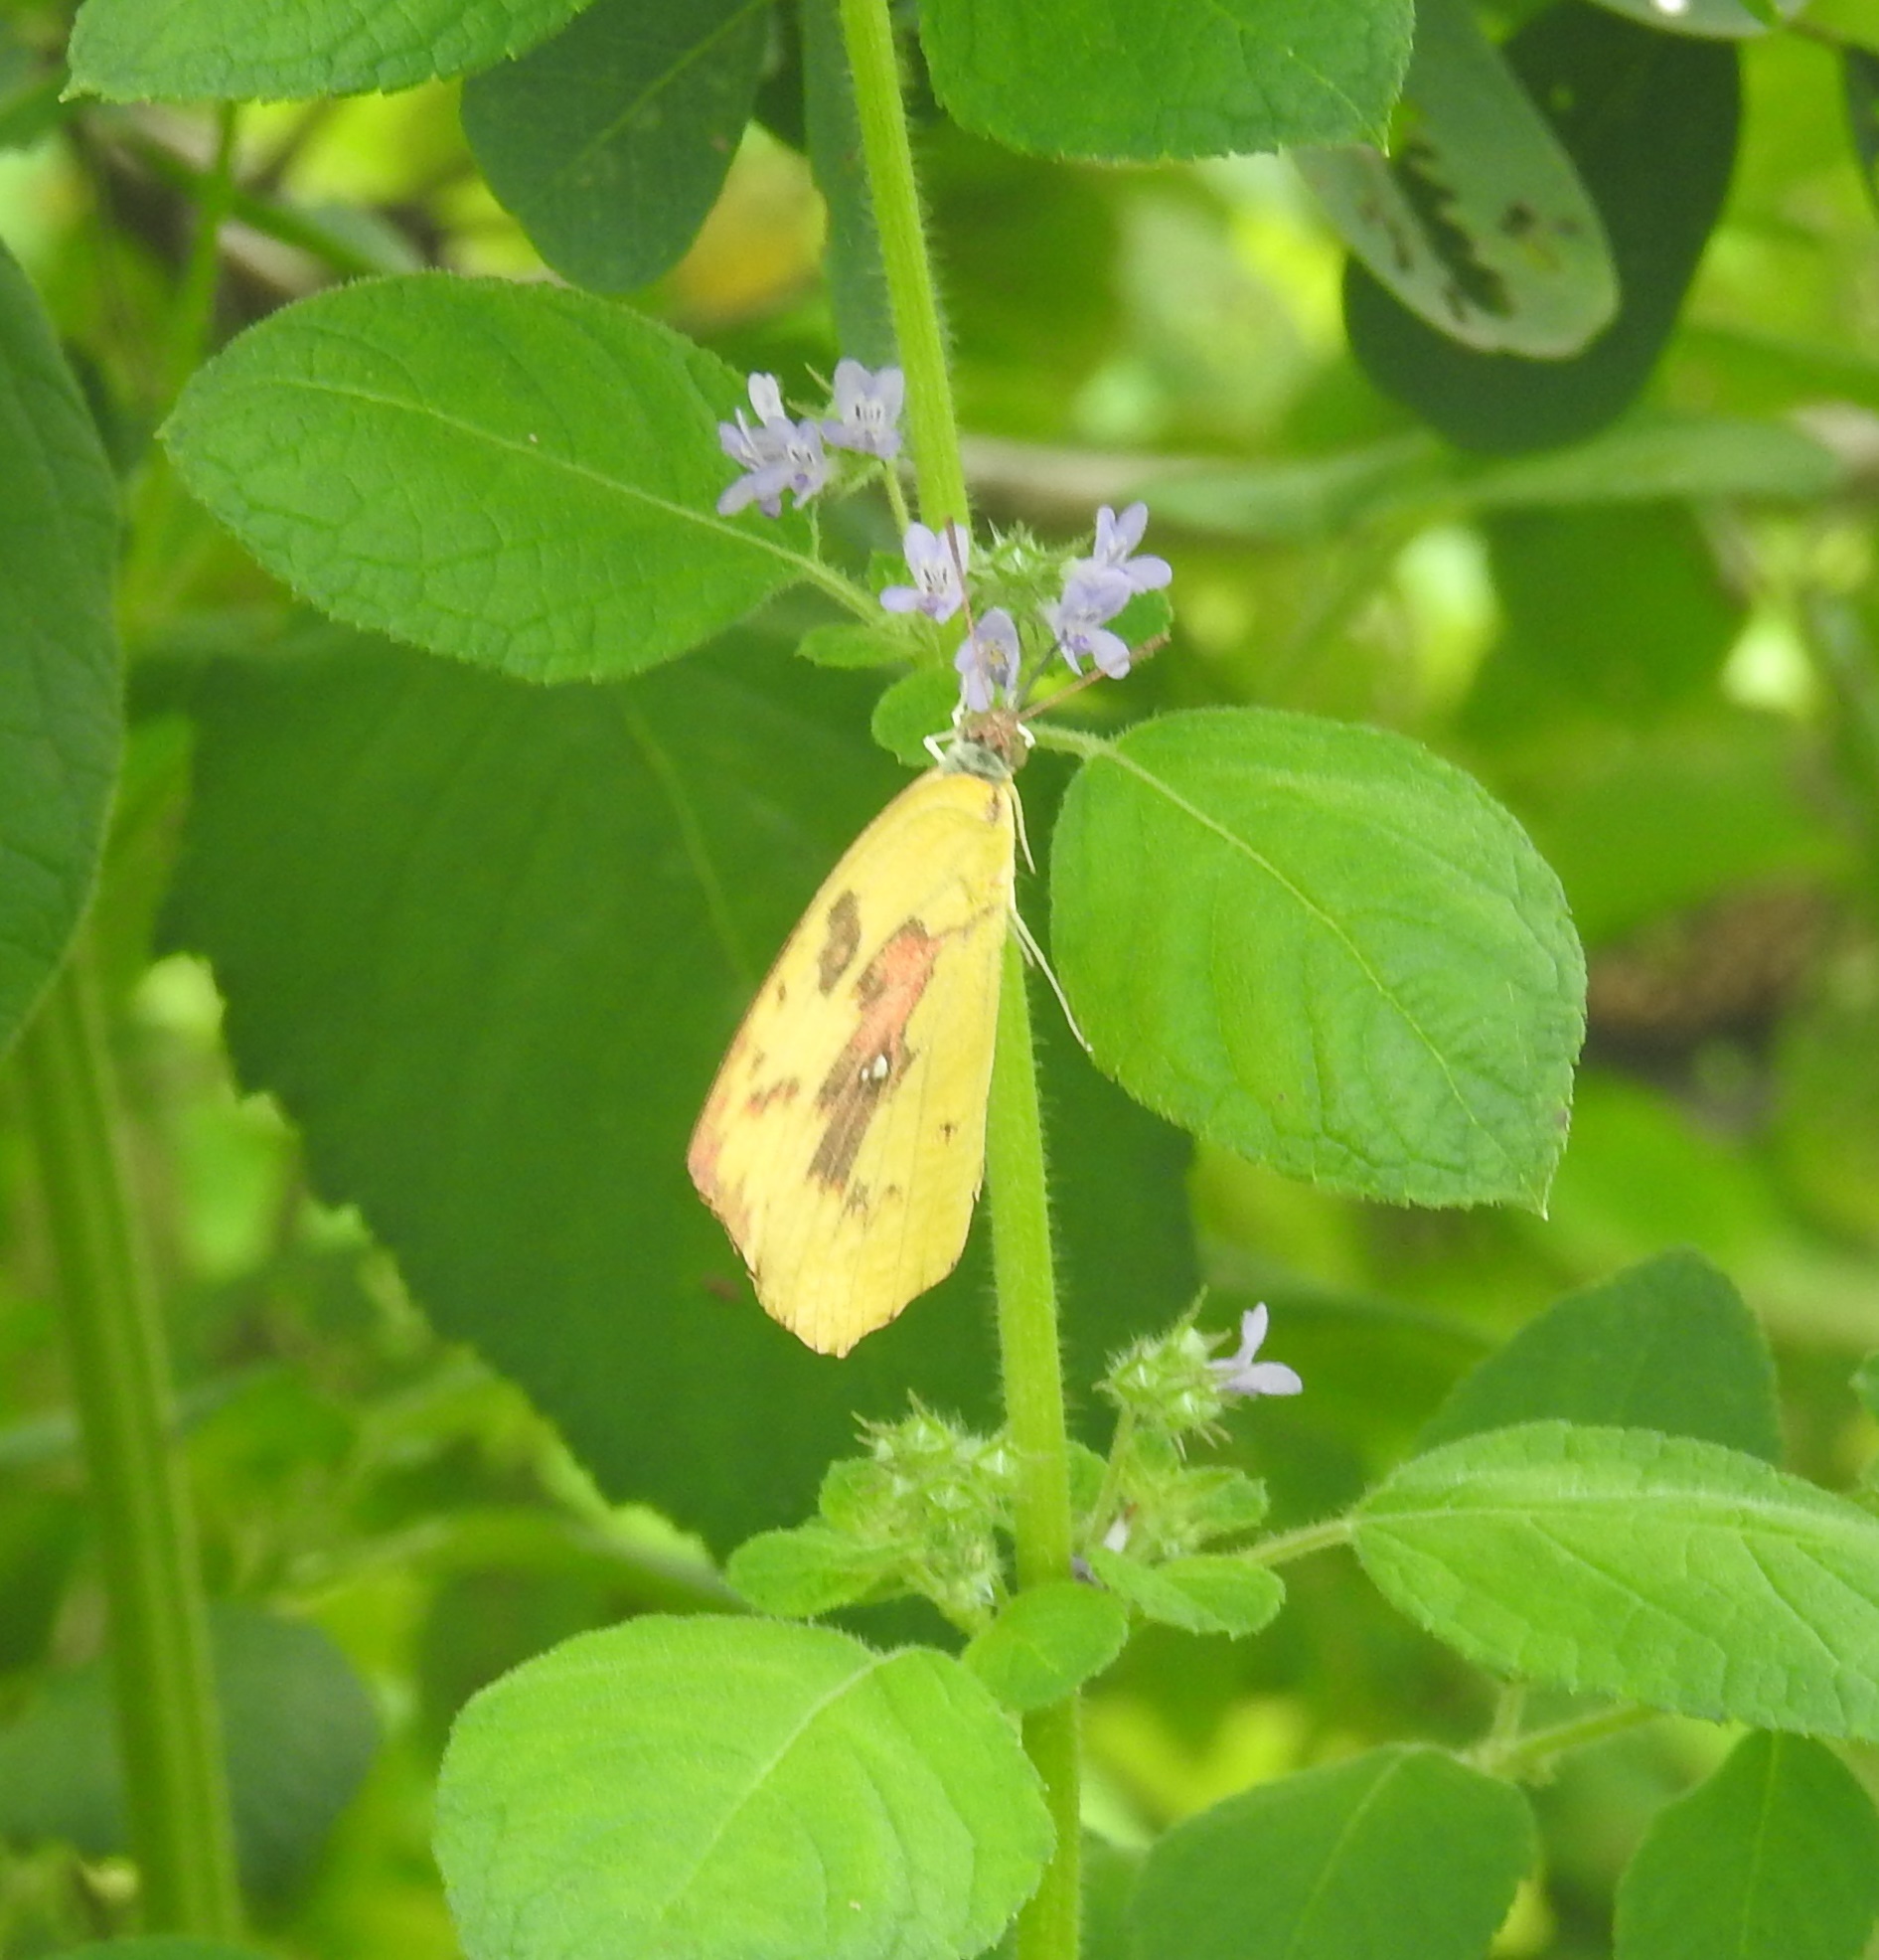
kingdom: Animalia
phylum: Arthropoda
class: Insecta
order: Lepidoptera
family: Pieridae
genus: Catopsilia
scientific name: Catopsilia pomona
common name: Common emigrant
